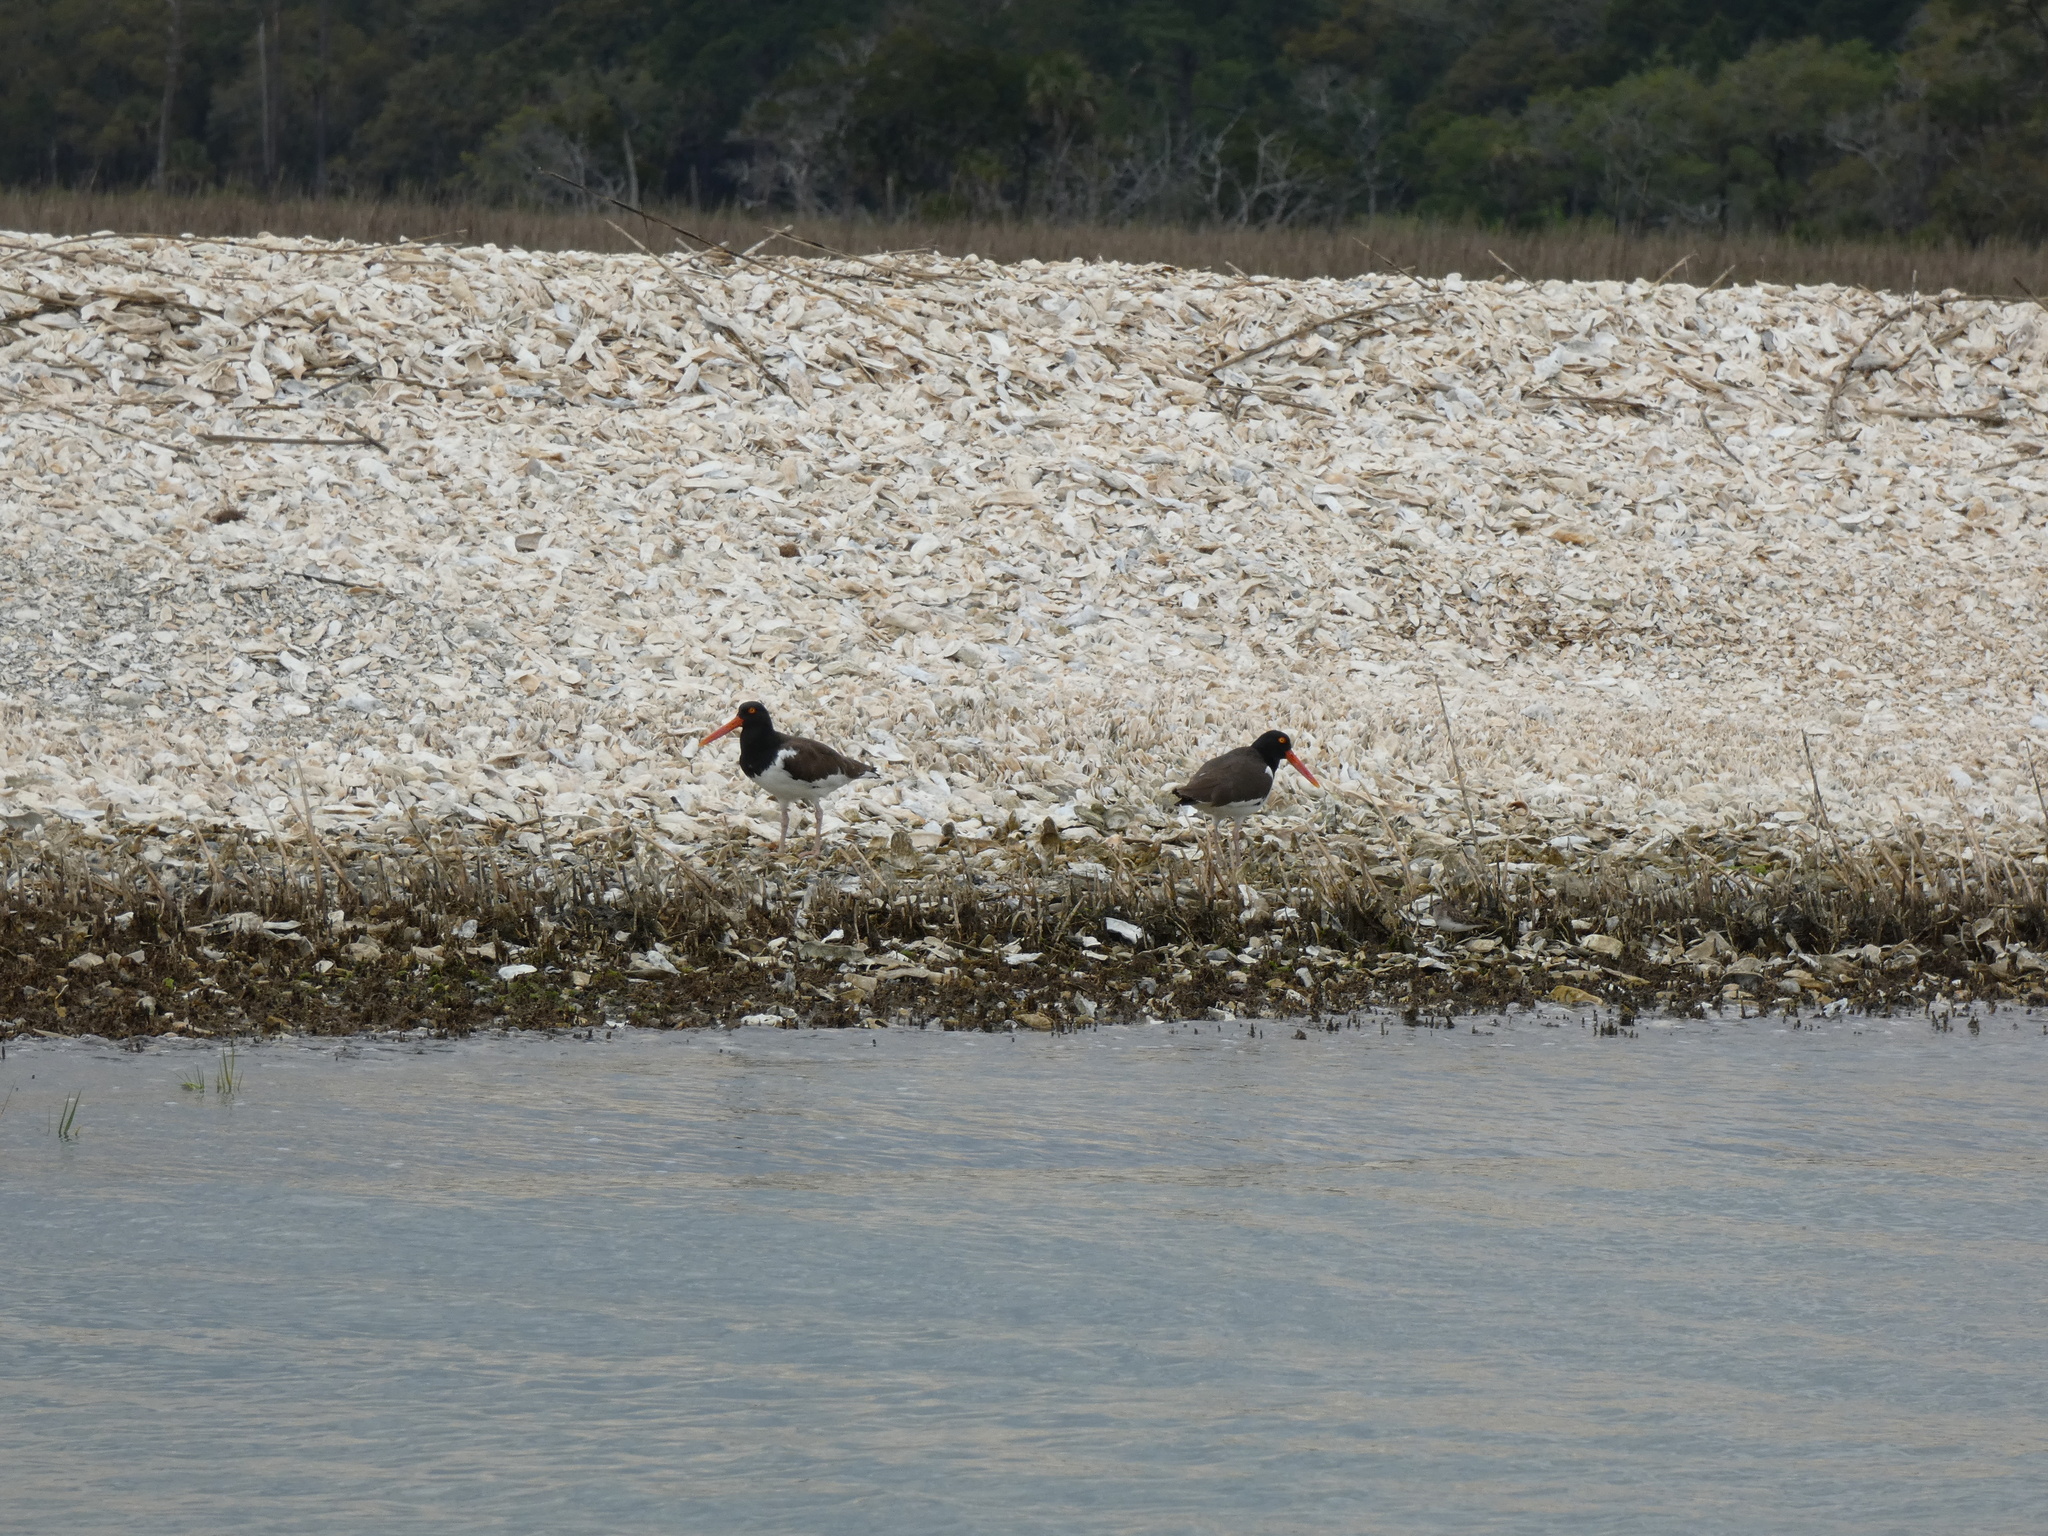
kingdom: Animalia
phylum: Chordata
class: Aves
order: Charadriiformes
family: Haematopodidae
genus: Haematopus
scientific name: Haematopus palliatus
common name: American oystercatcher
